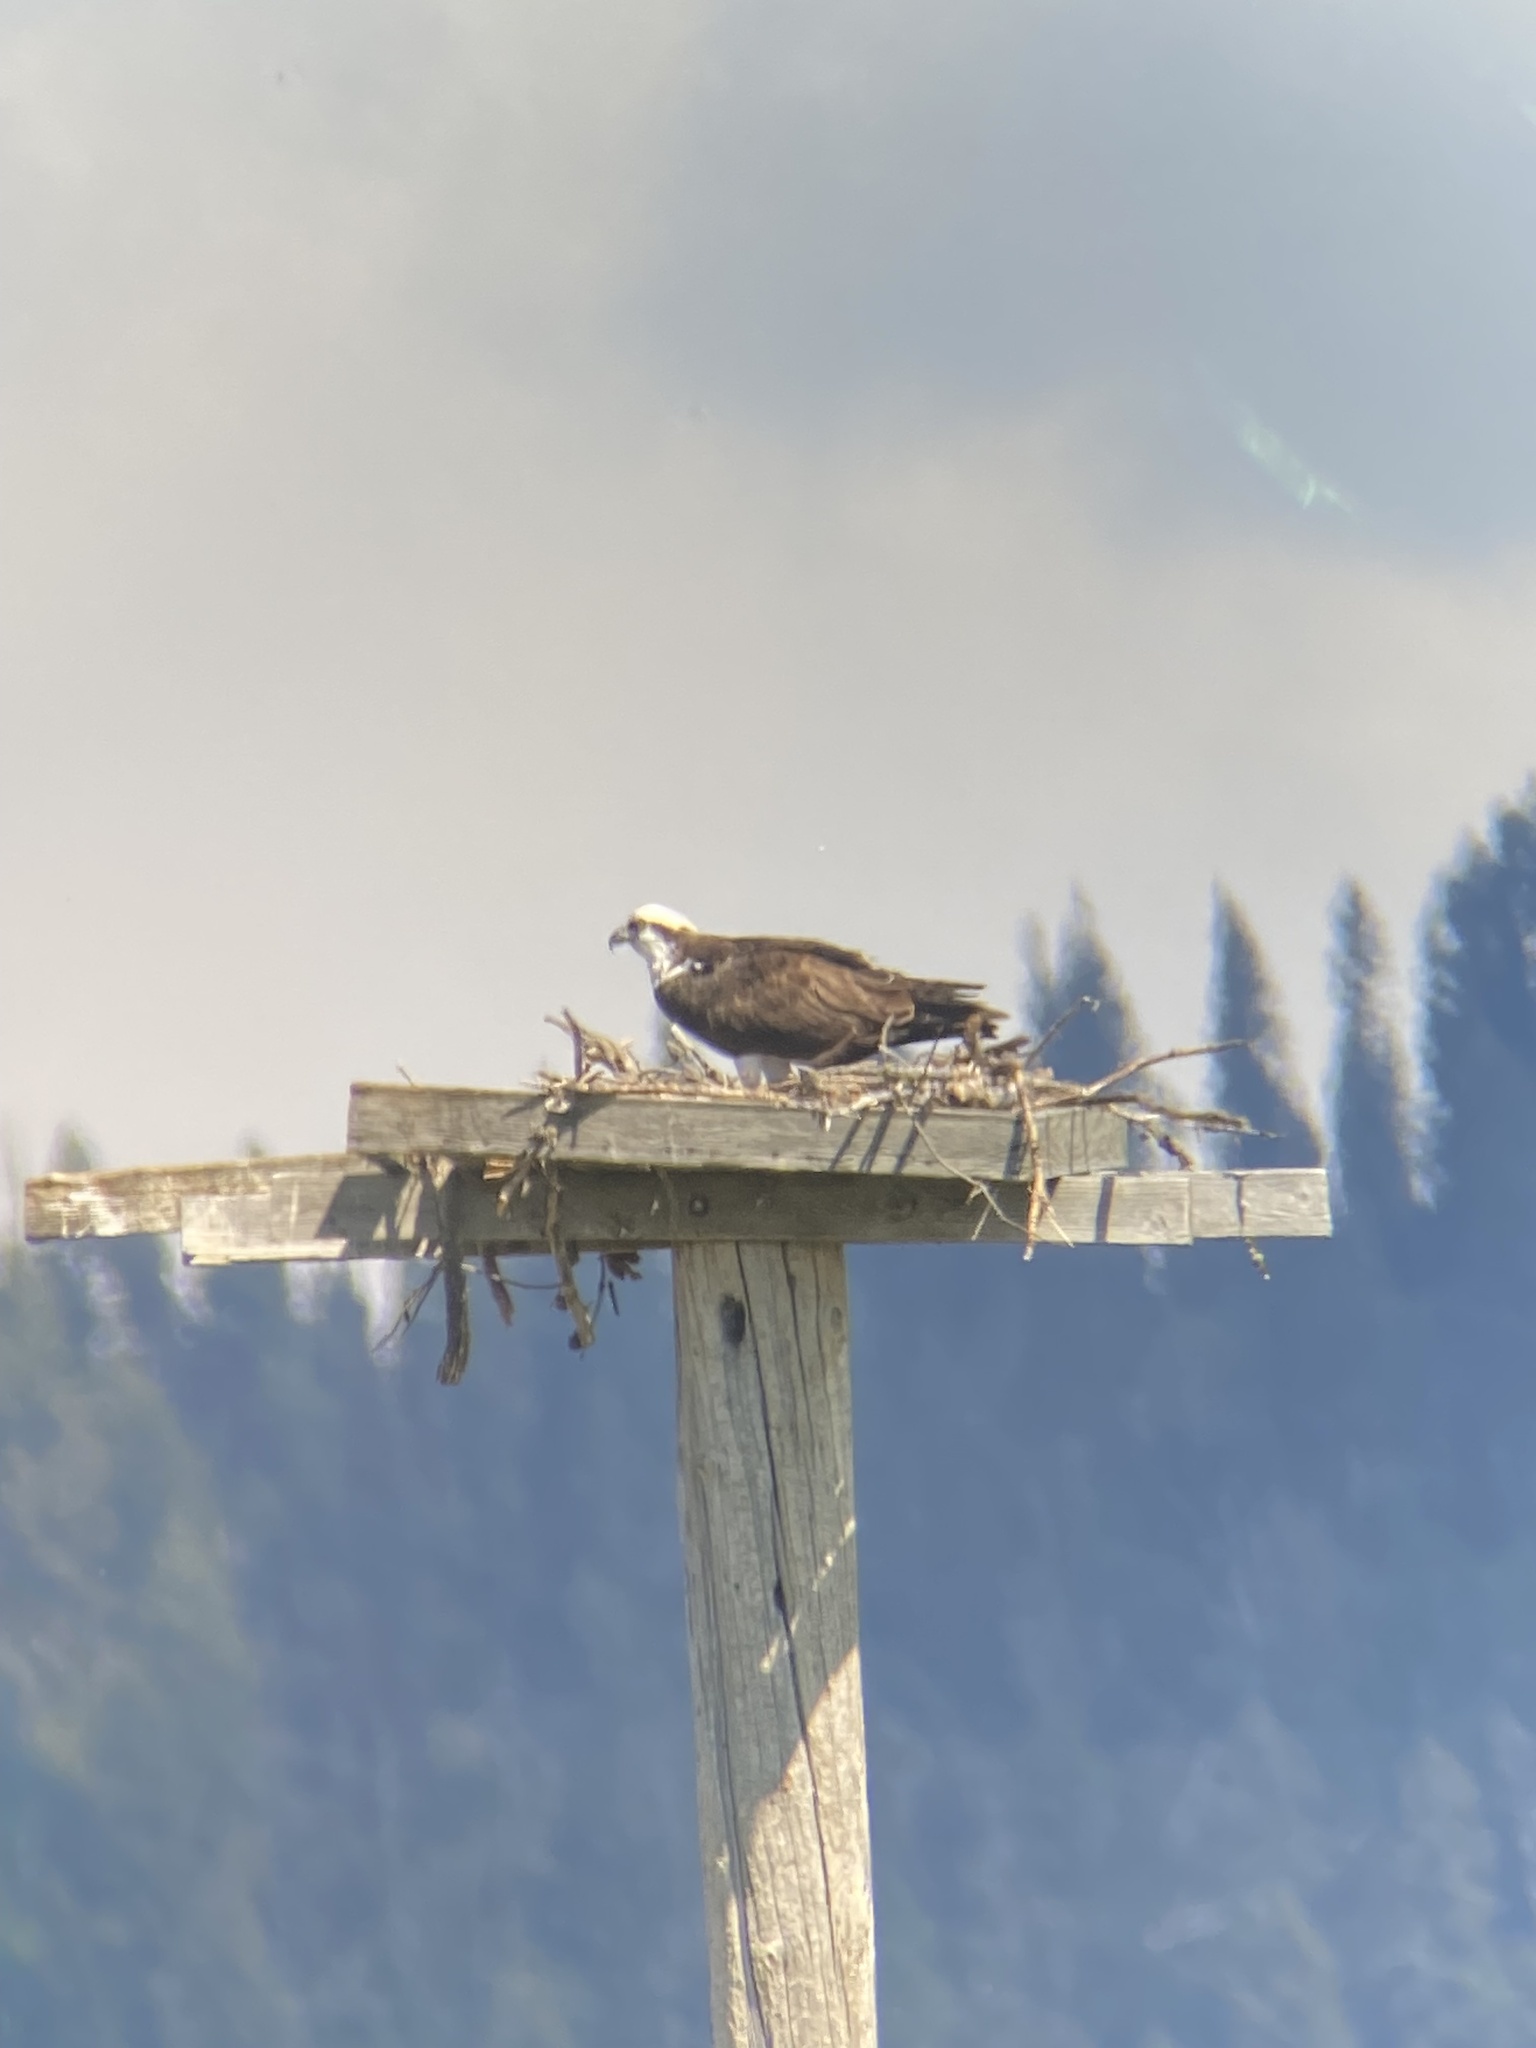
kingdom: Animalia
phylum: Chordata
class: Aves
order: Accipitriformes
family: Pandionidae
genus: Pandion
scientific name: Pandion haliaetus
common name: Osprey
